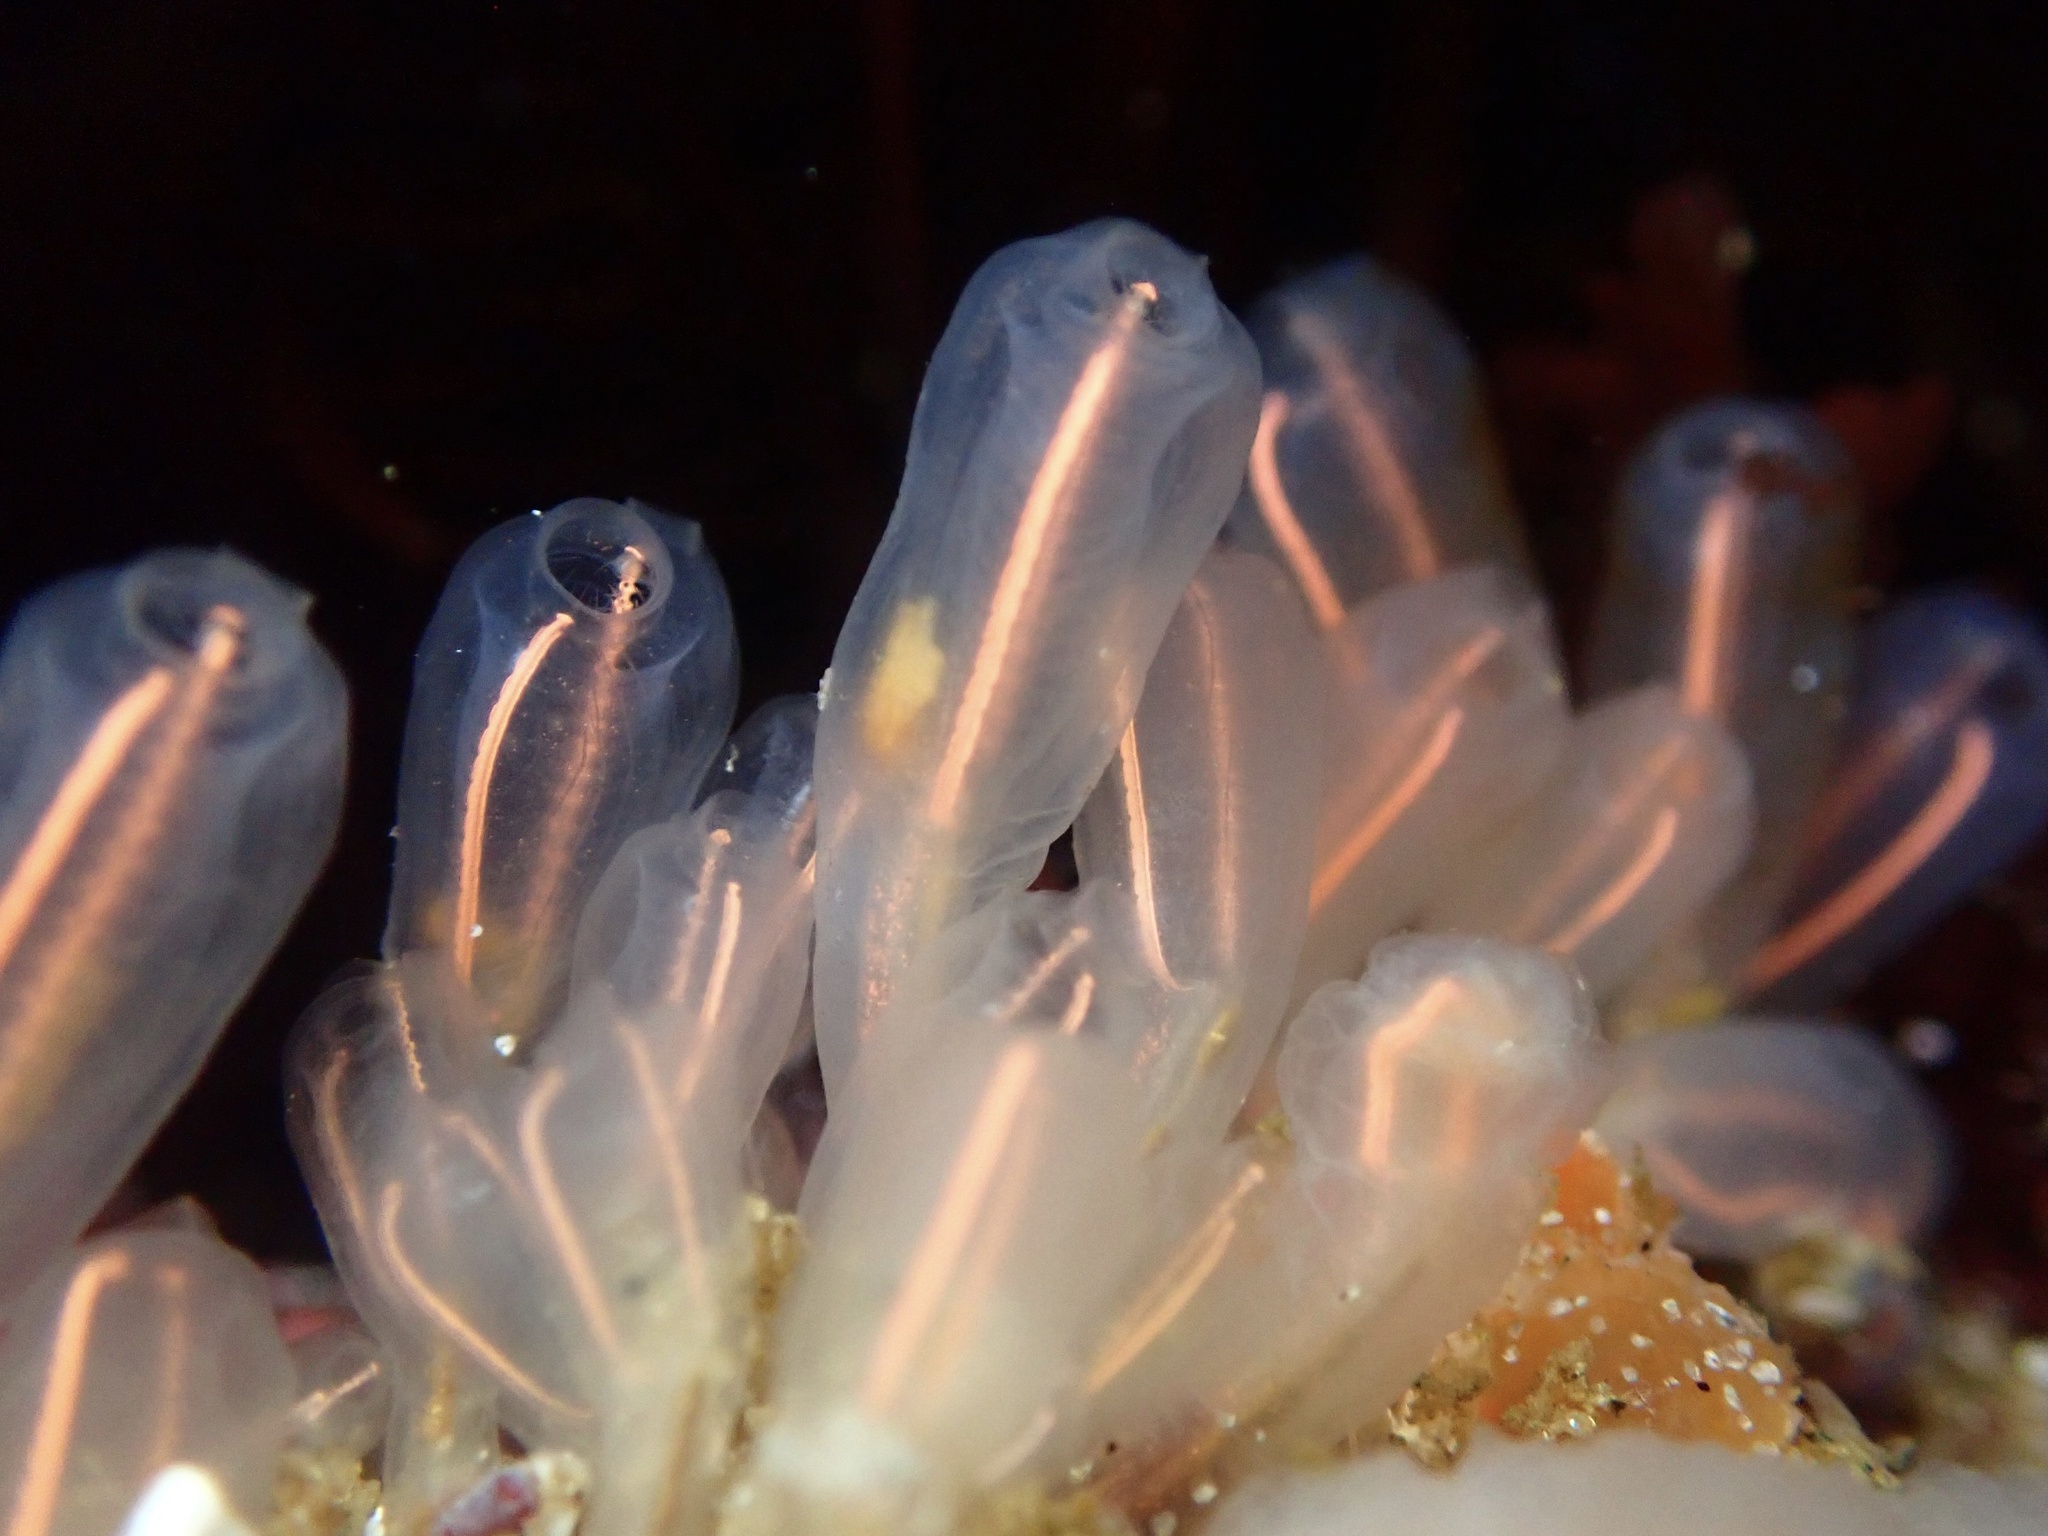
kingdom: Animalia
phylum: Chordata
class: Ascidiacea
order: Aplousobranchia
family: Clavelinidae
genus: Clavelina
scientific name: Clavelina huntsmani
